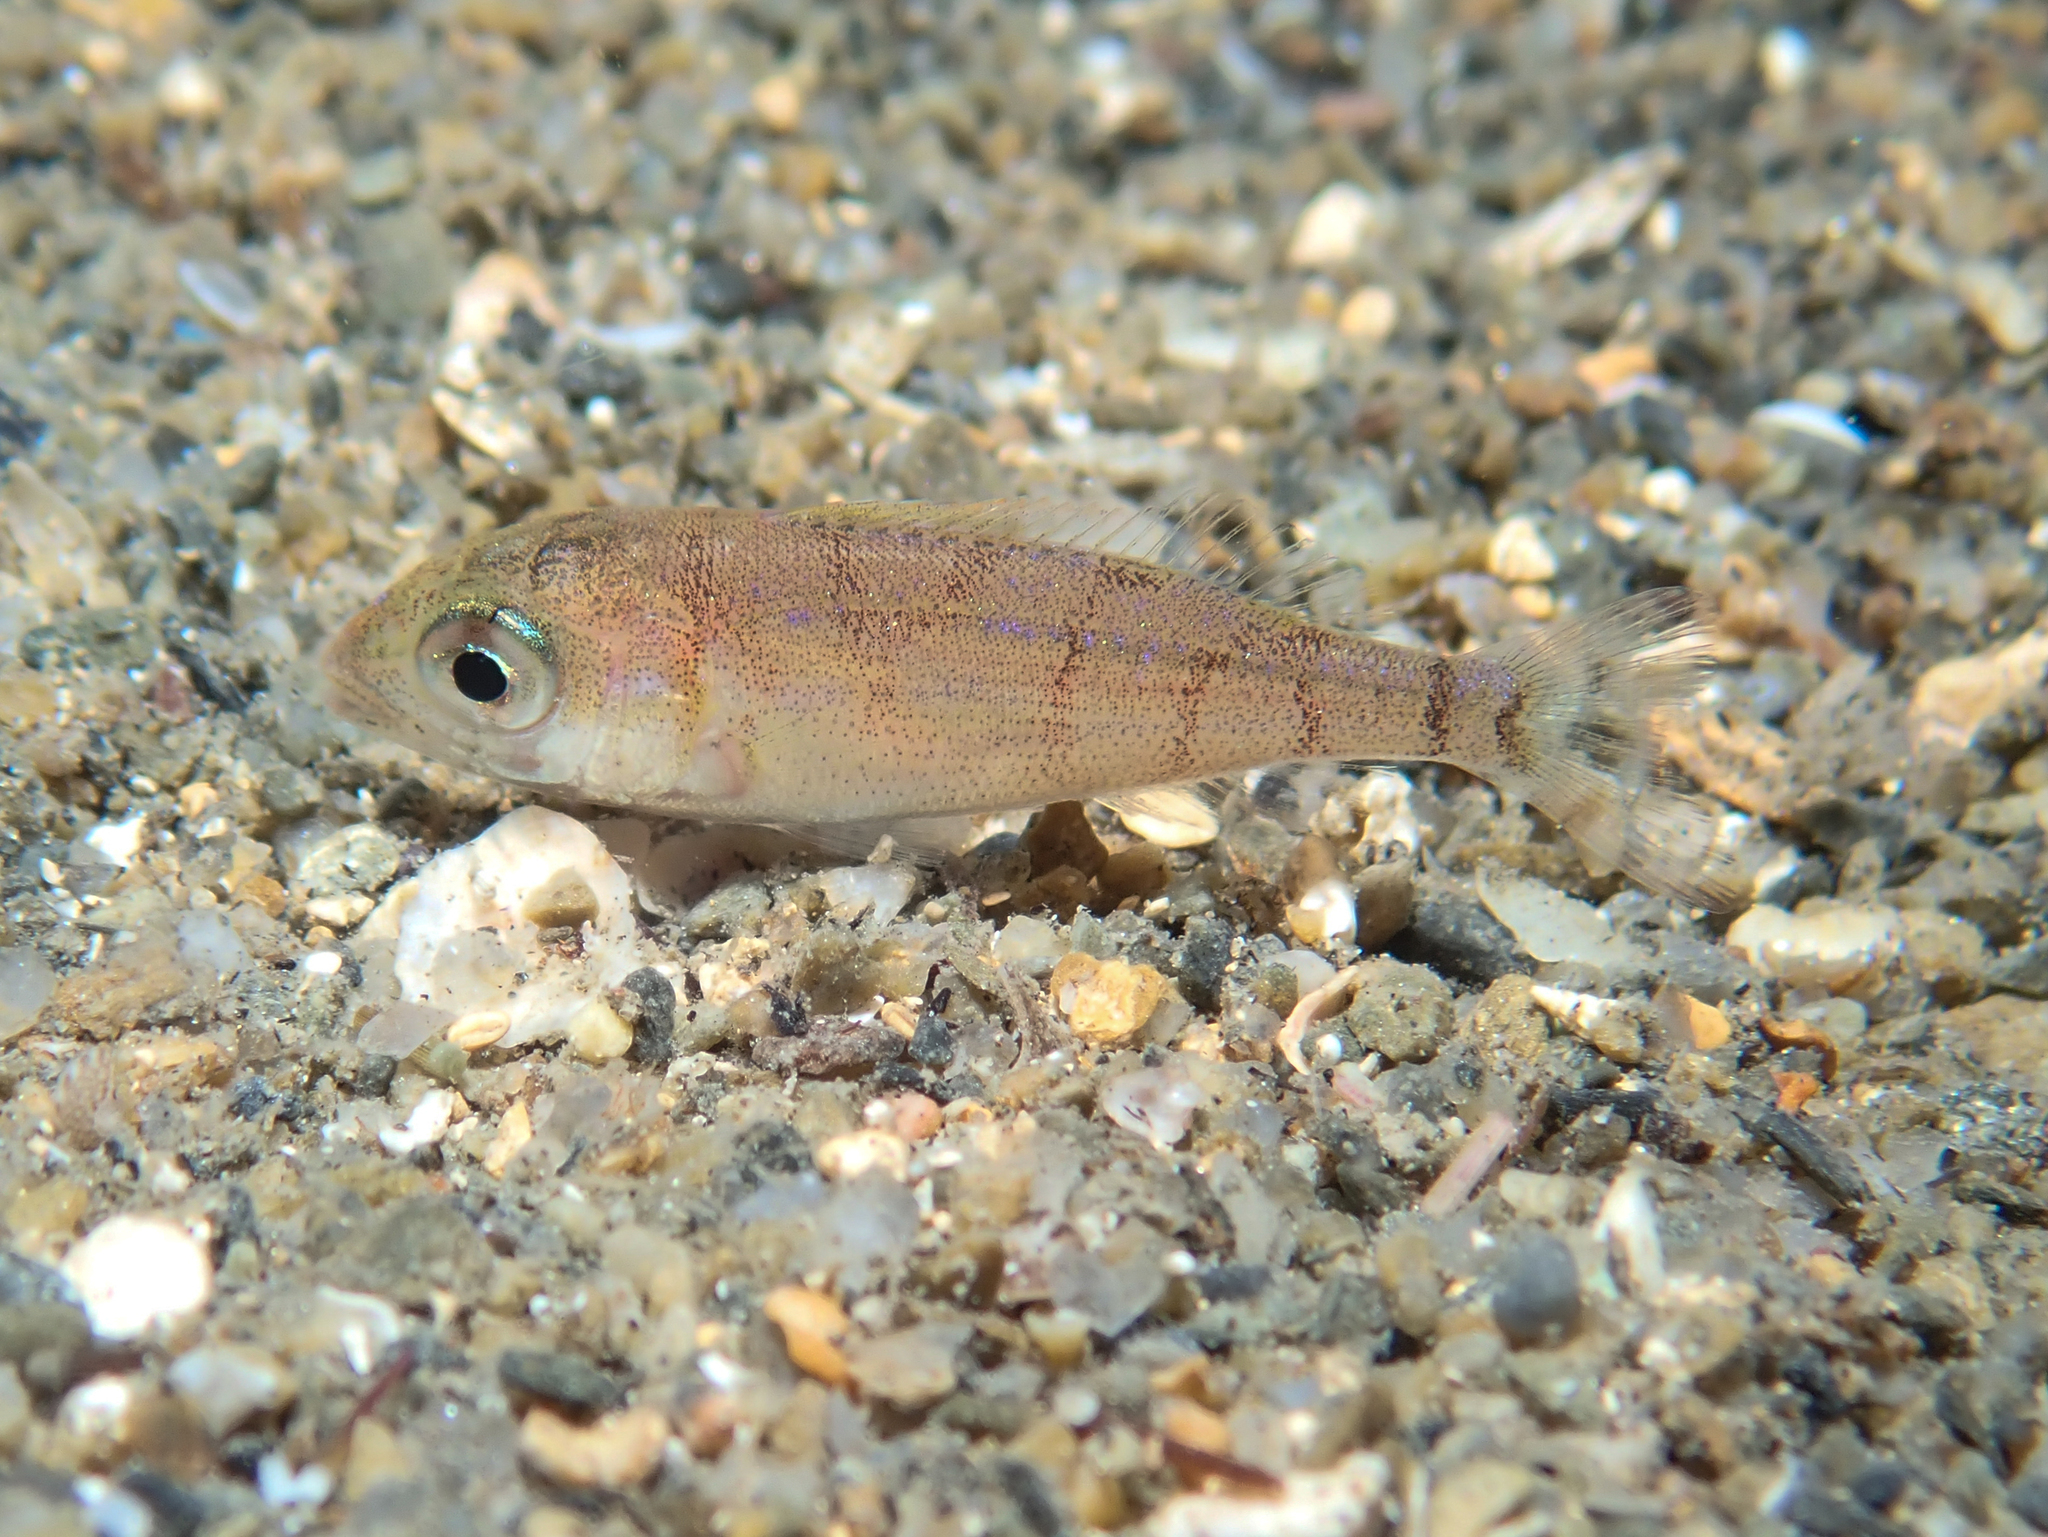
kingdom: Animalia
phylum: Chordata
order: Perciformes
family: Sparidae
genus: Pagellus
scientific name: Pagellus erythrinus
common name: Pandora
